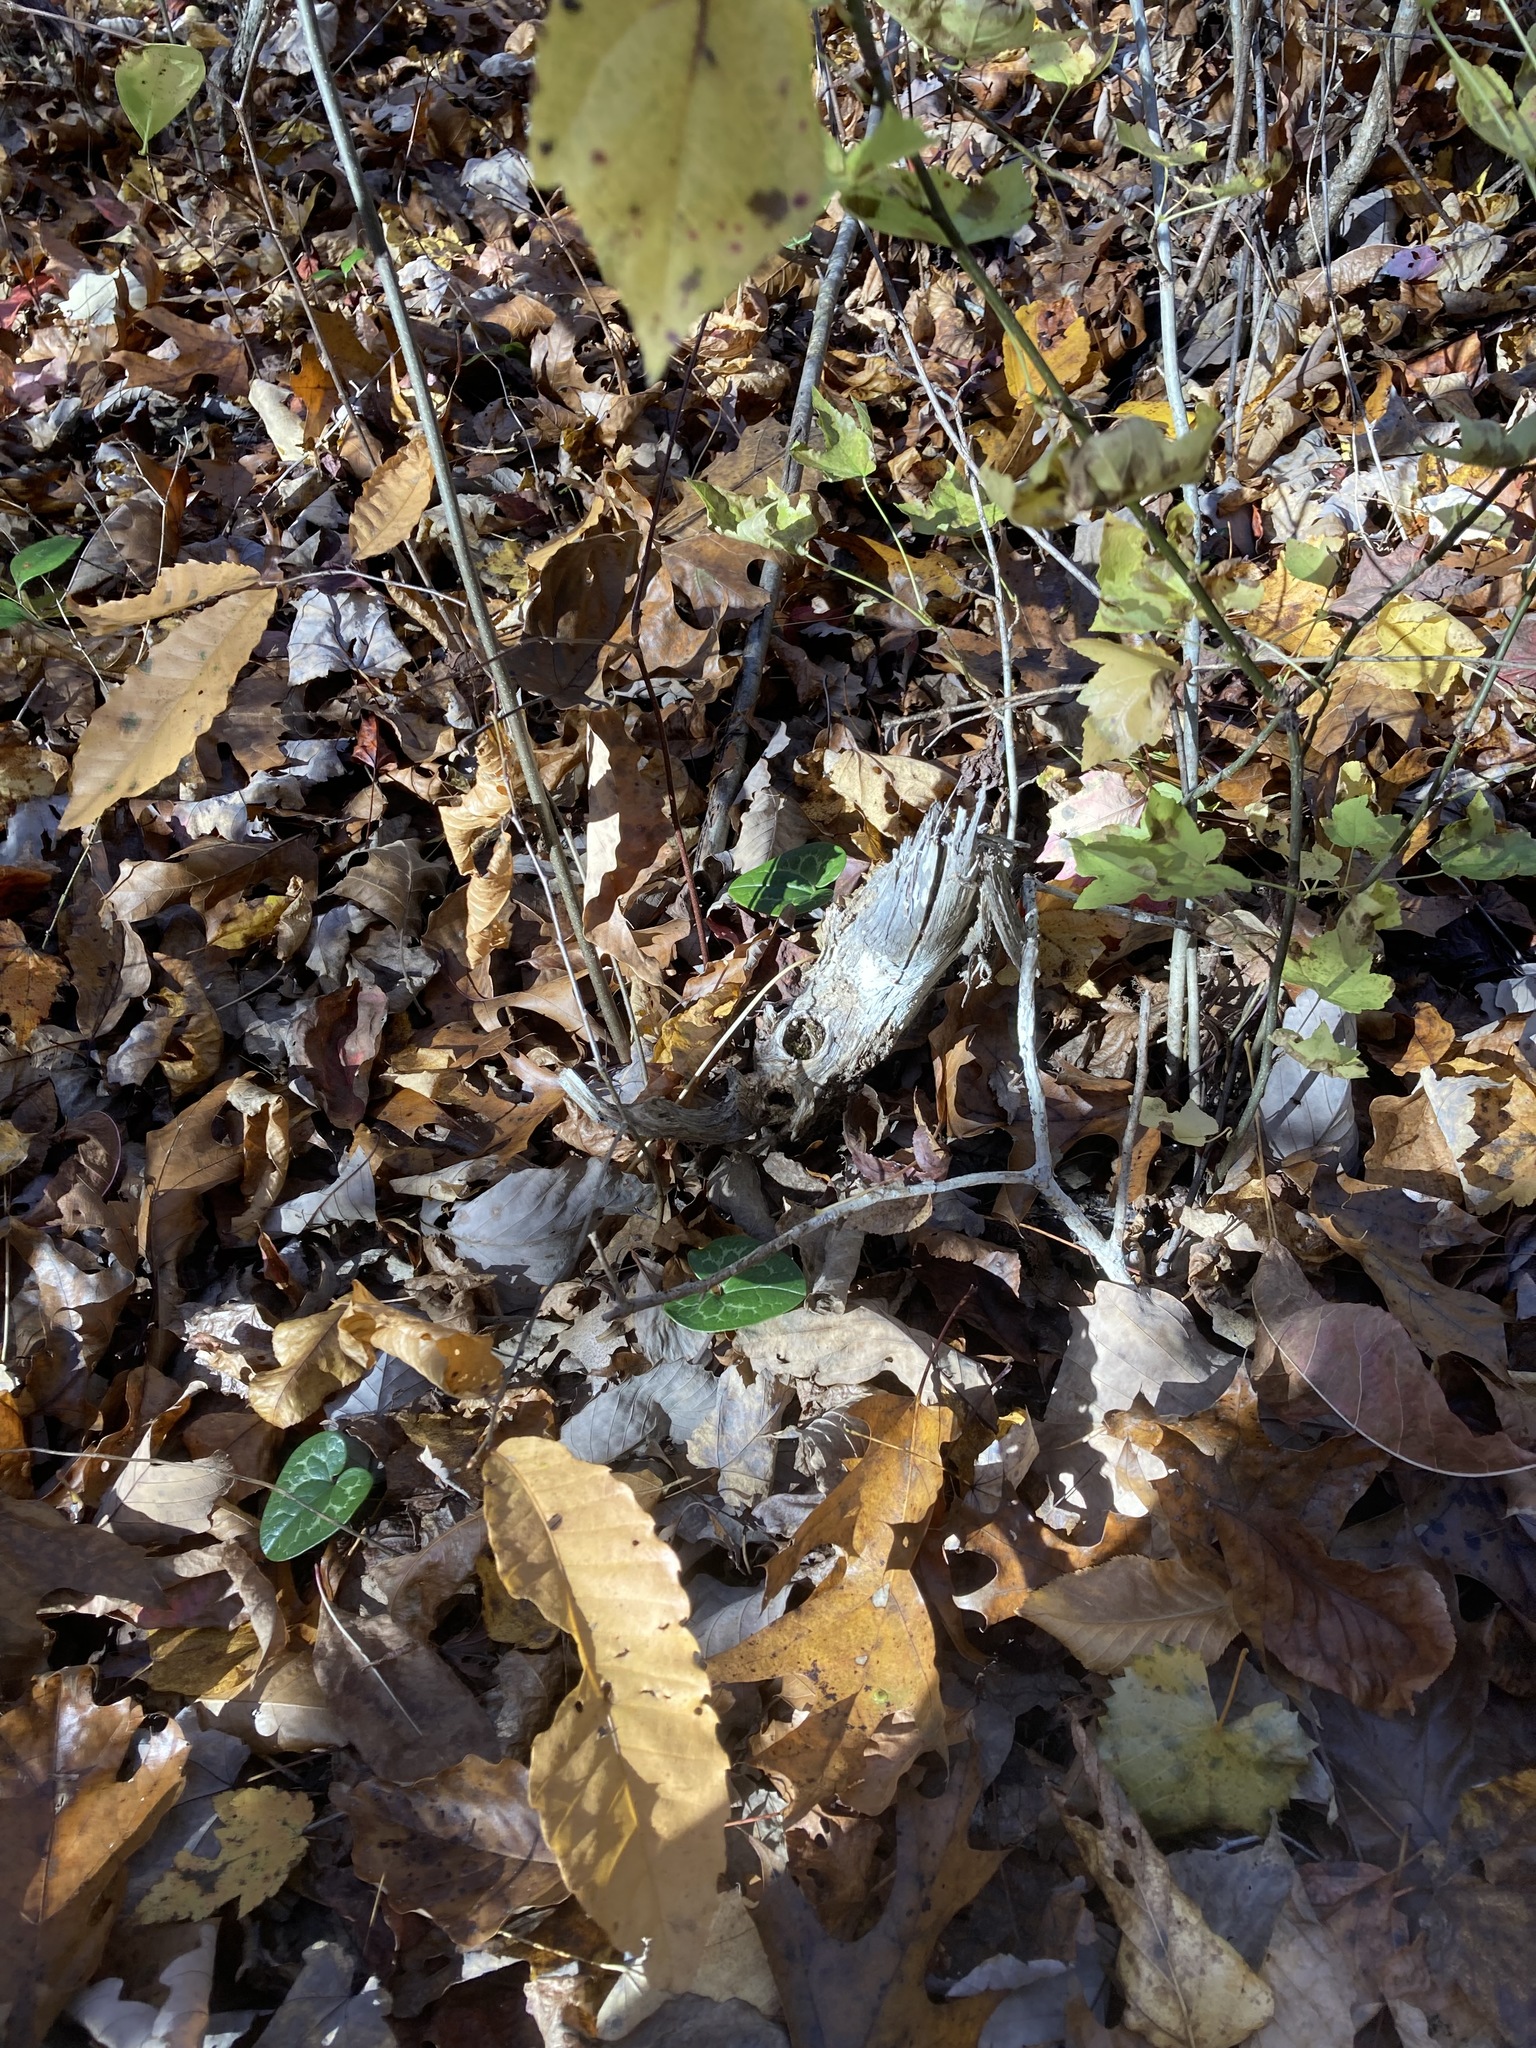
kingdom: Plantae
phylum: Tracheophyta
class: Magnoliopsida
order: Fagales
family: Fagaceae
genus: Castanea
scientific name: Castanea dentata
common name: American chestnut
